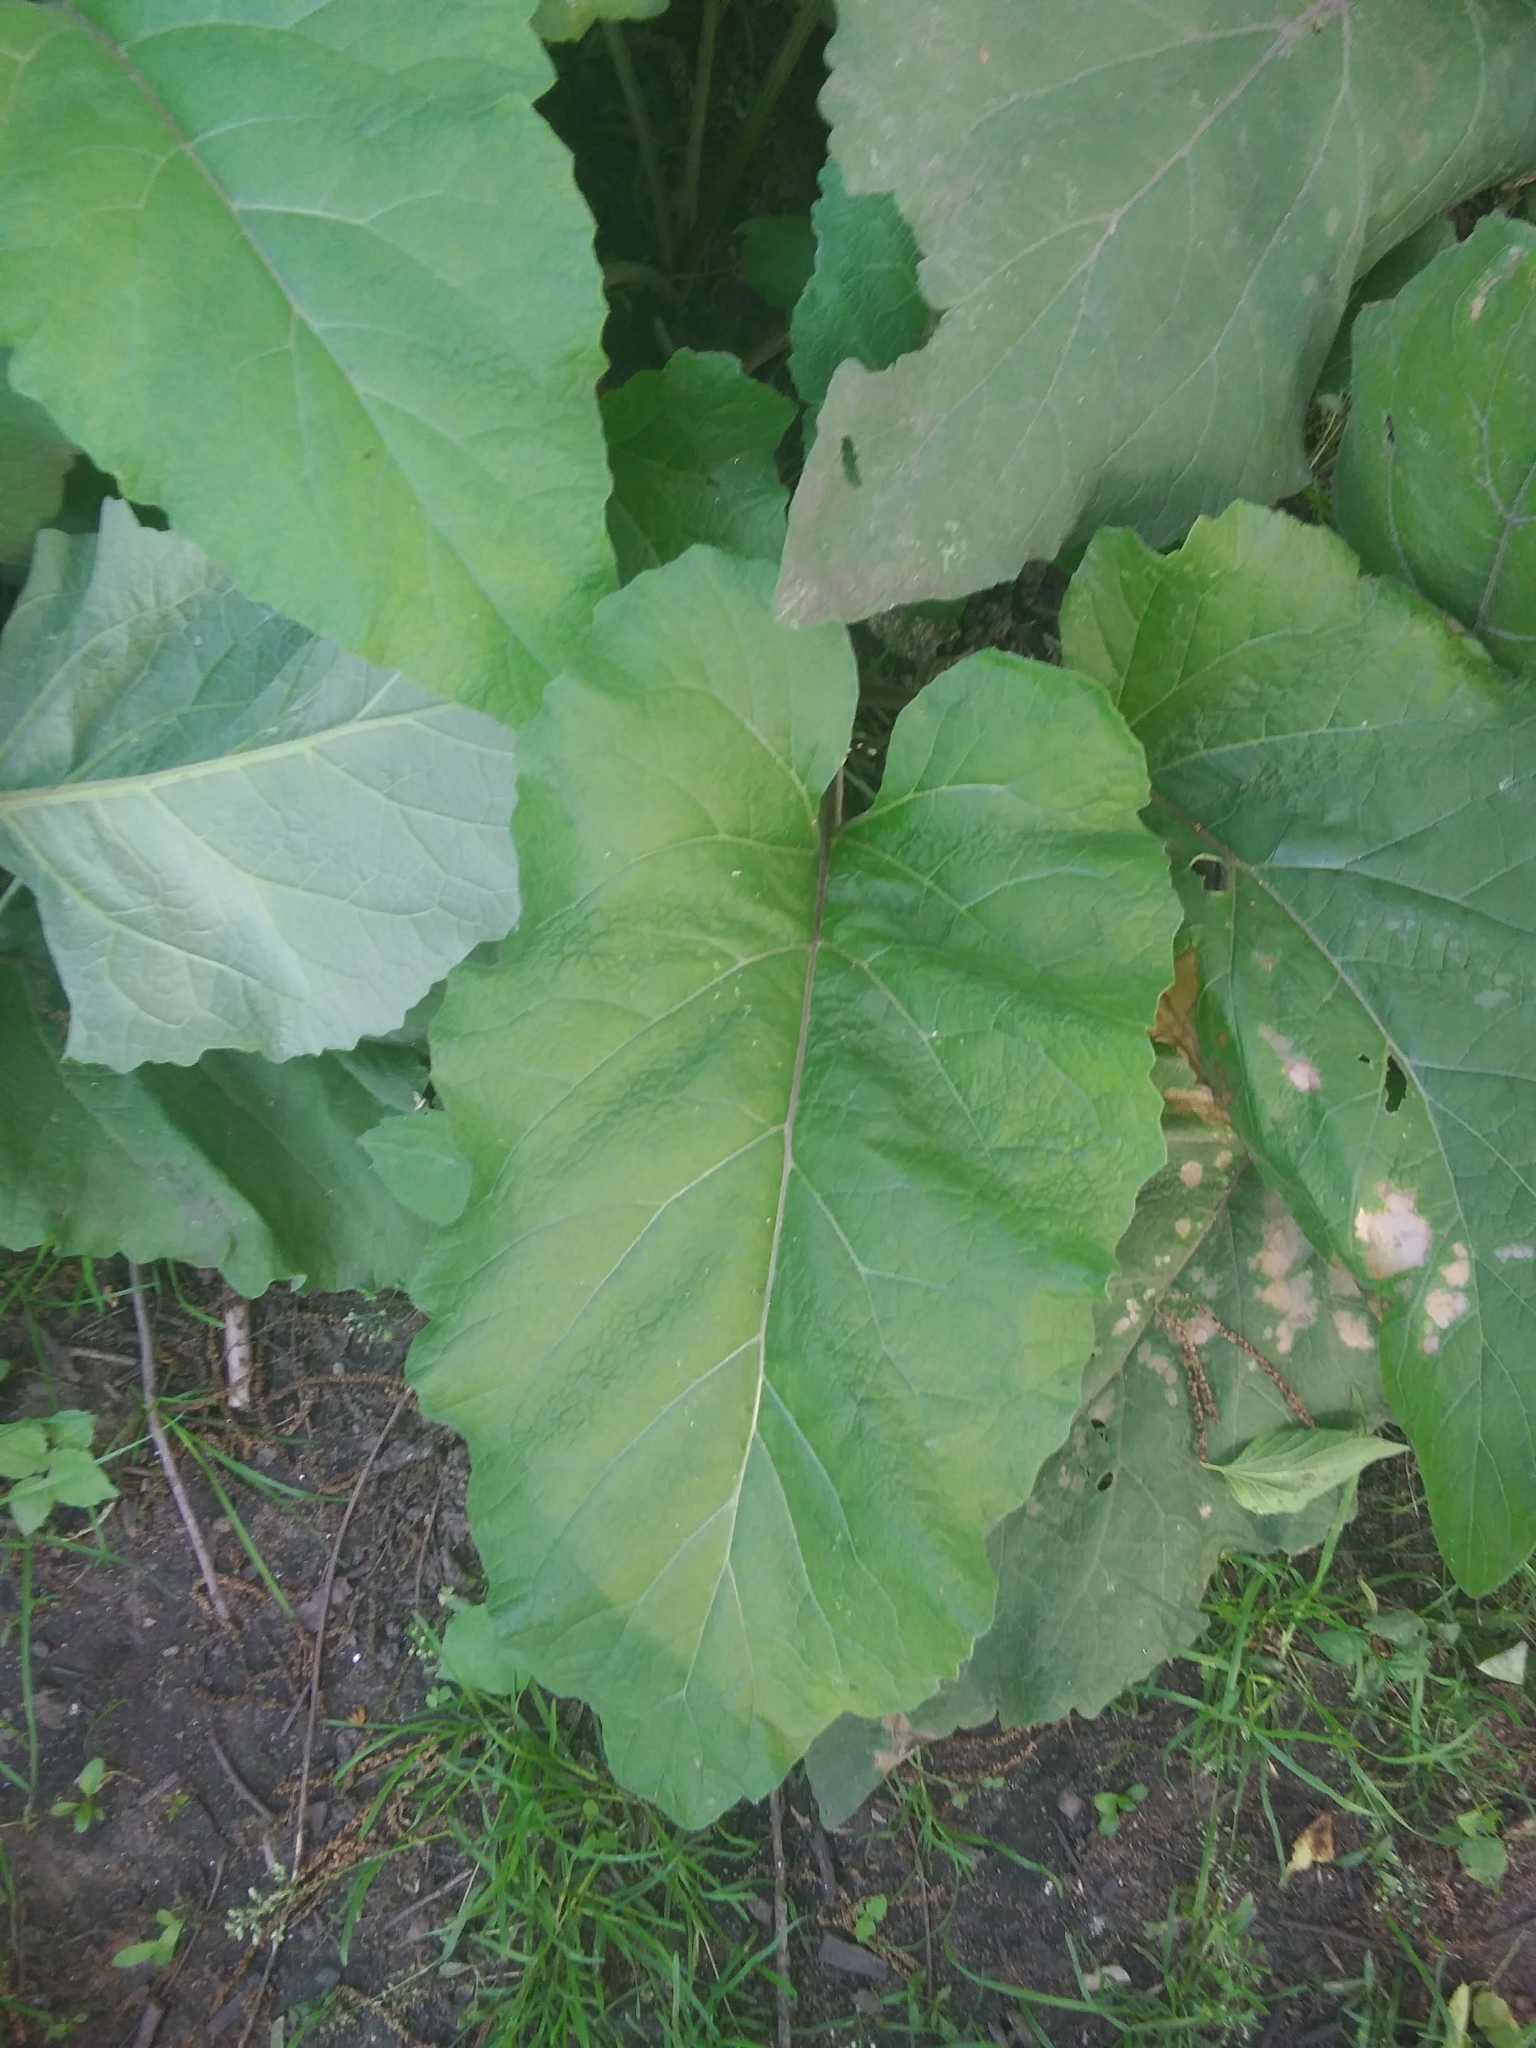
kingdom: Plantae
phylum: Tracheophyta
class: Magnoliopsida
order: Asterales
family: Asteraceae
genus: Arctium
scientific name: Arctium
